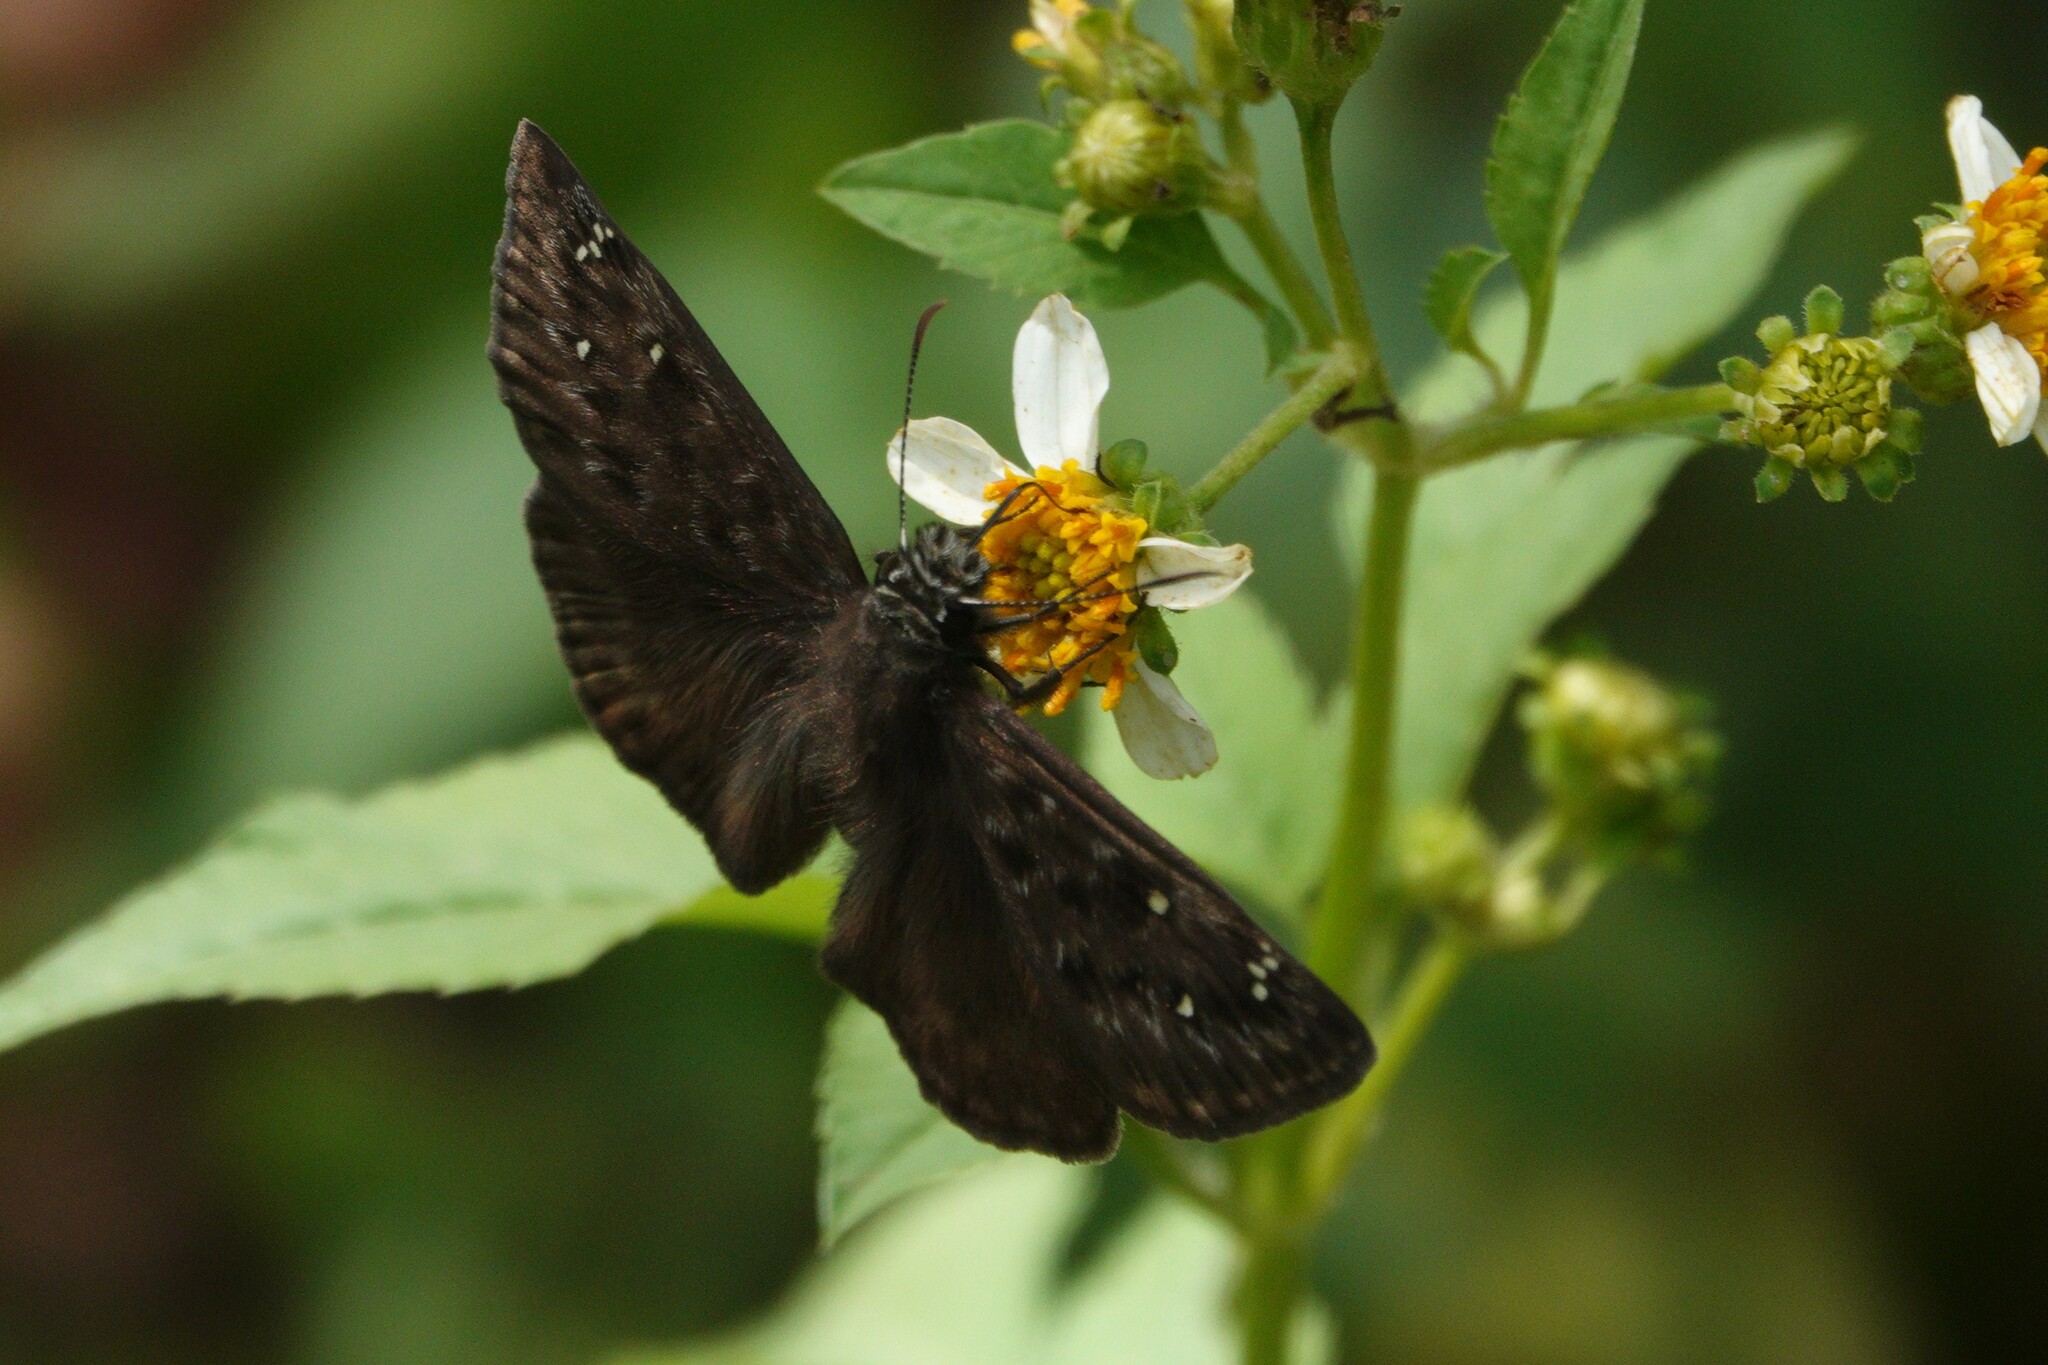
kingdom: Animalia
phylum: Arthropoda
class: Insecta
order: Lepidoptera
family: Hesperiidae
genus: Erynnis
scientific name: Erynnis horatius
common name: Horace's duskywing
